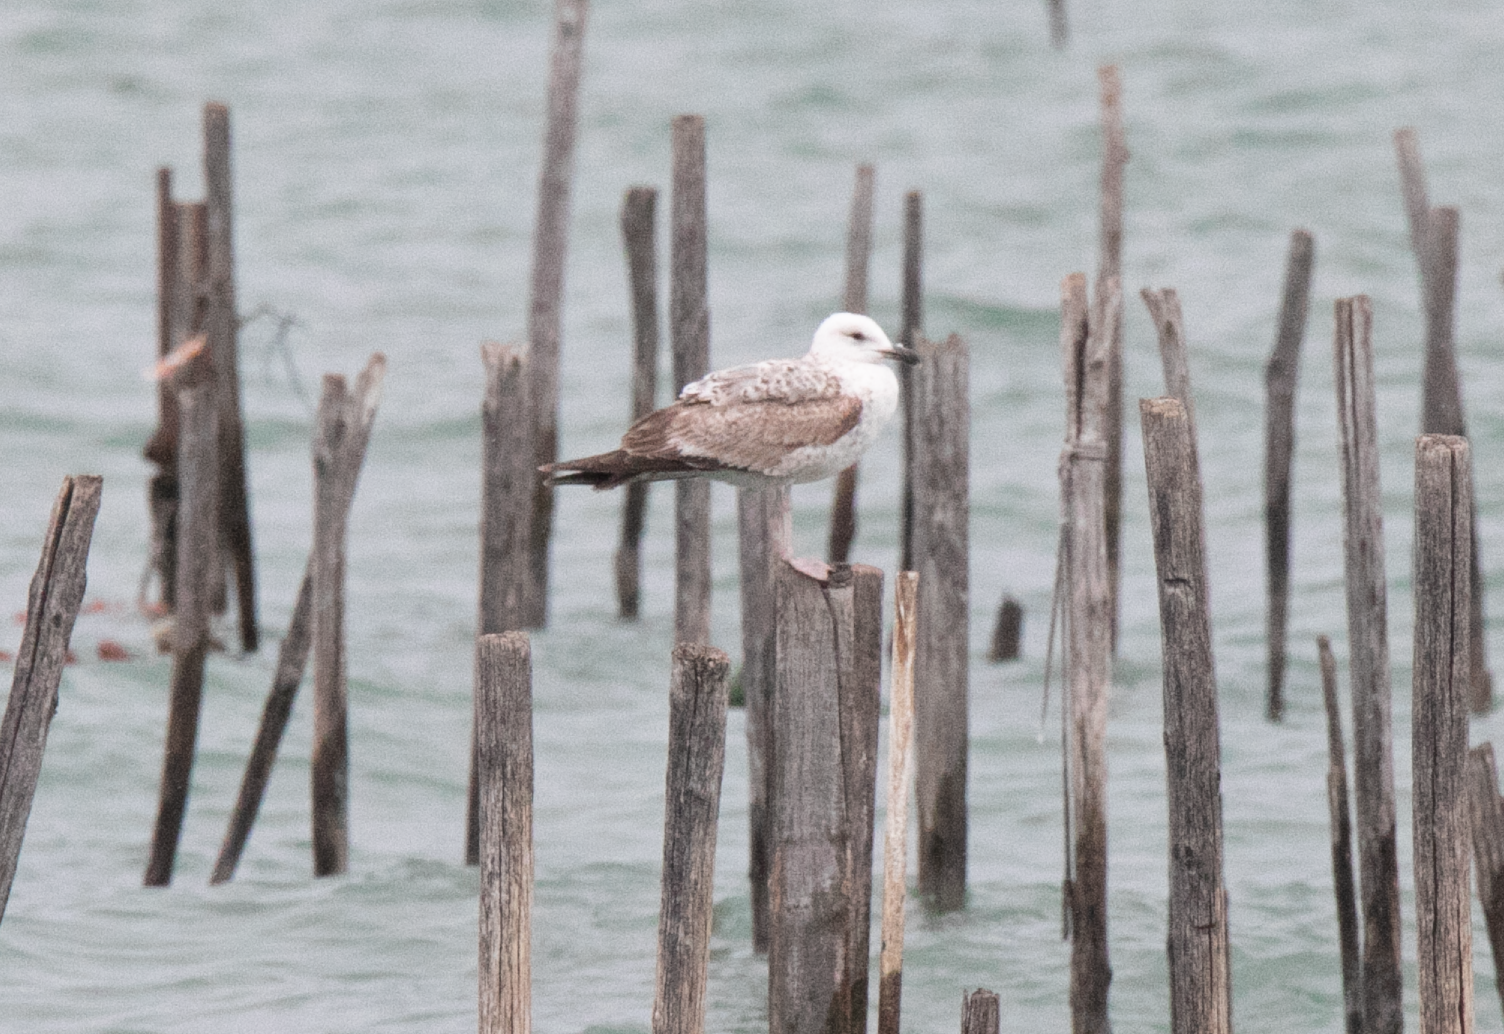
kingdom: Animalia
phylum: Chordata
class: Aves
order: Charadriiformes
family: Laridae
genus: Larus
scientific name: Larus michahellis
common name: Yellow-legged gull
